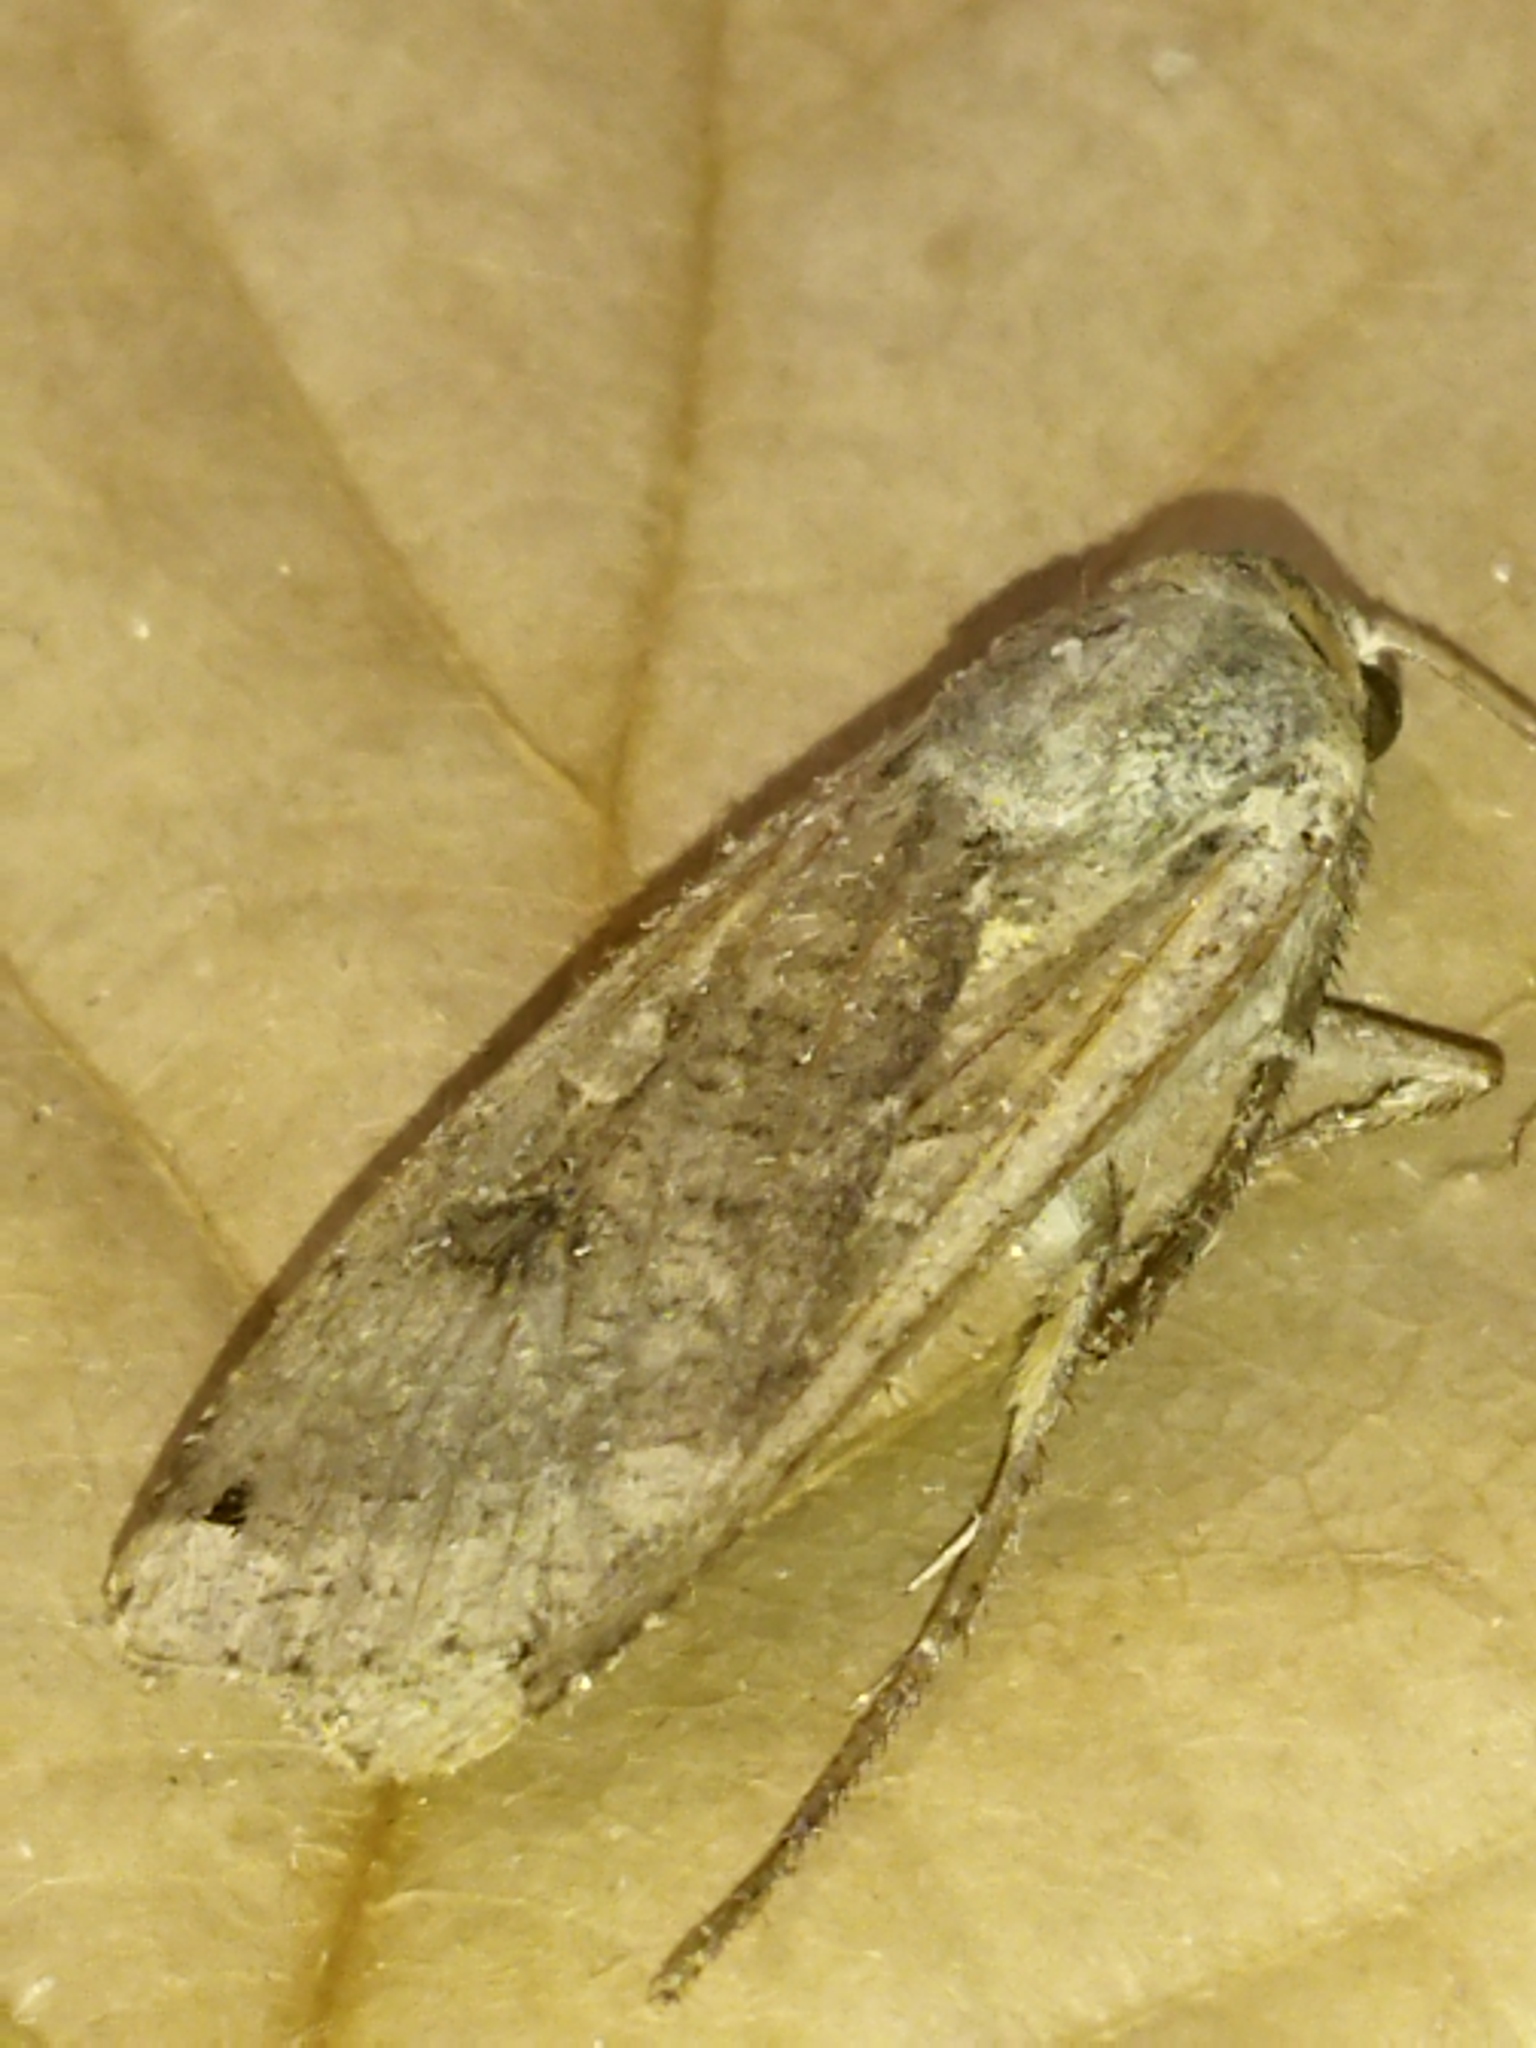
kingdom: Animalia
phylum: Arthropoda
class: Insecta
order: Lepidoptera
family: Noctuidae
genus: Noctua
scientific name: Noctua pronuba
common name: Large yellow underwing
